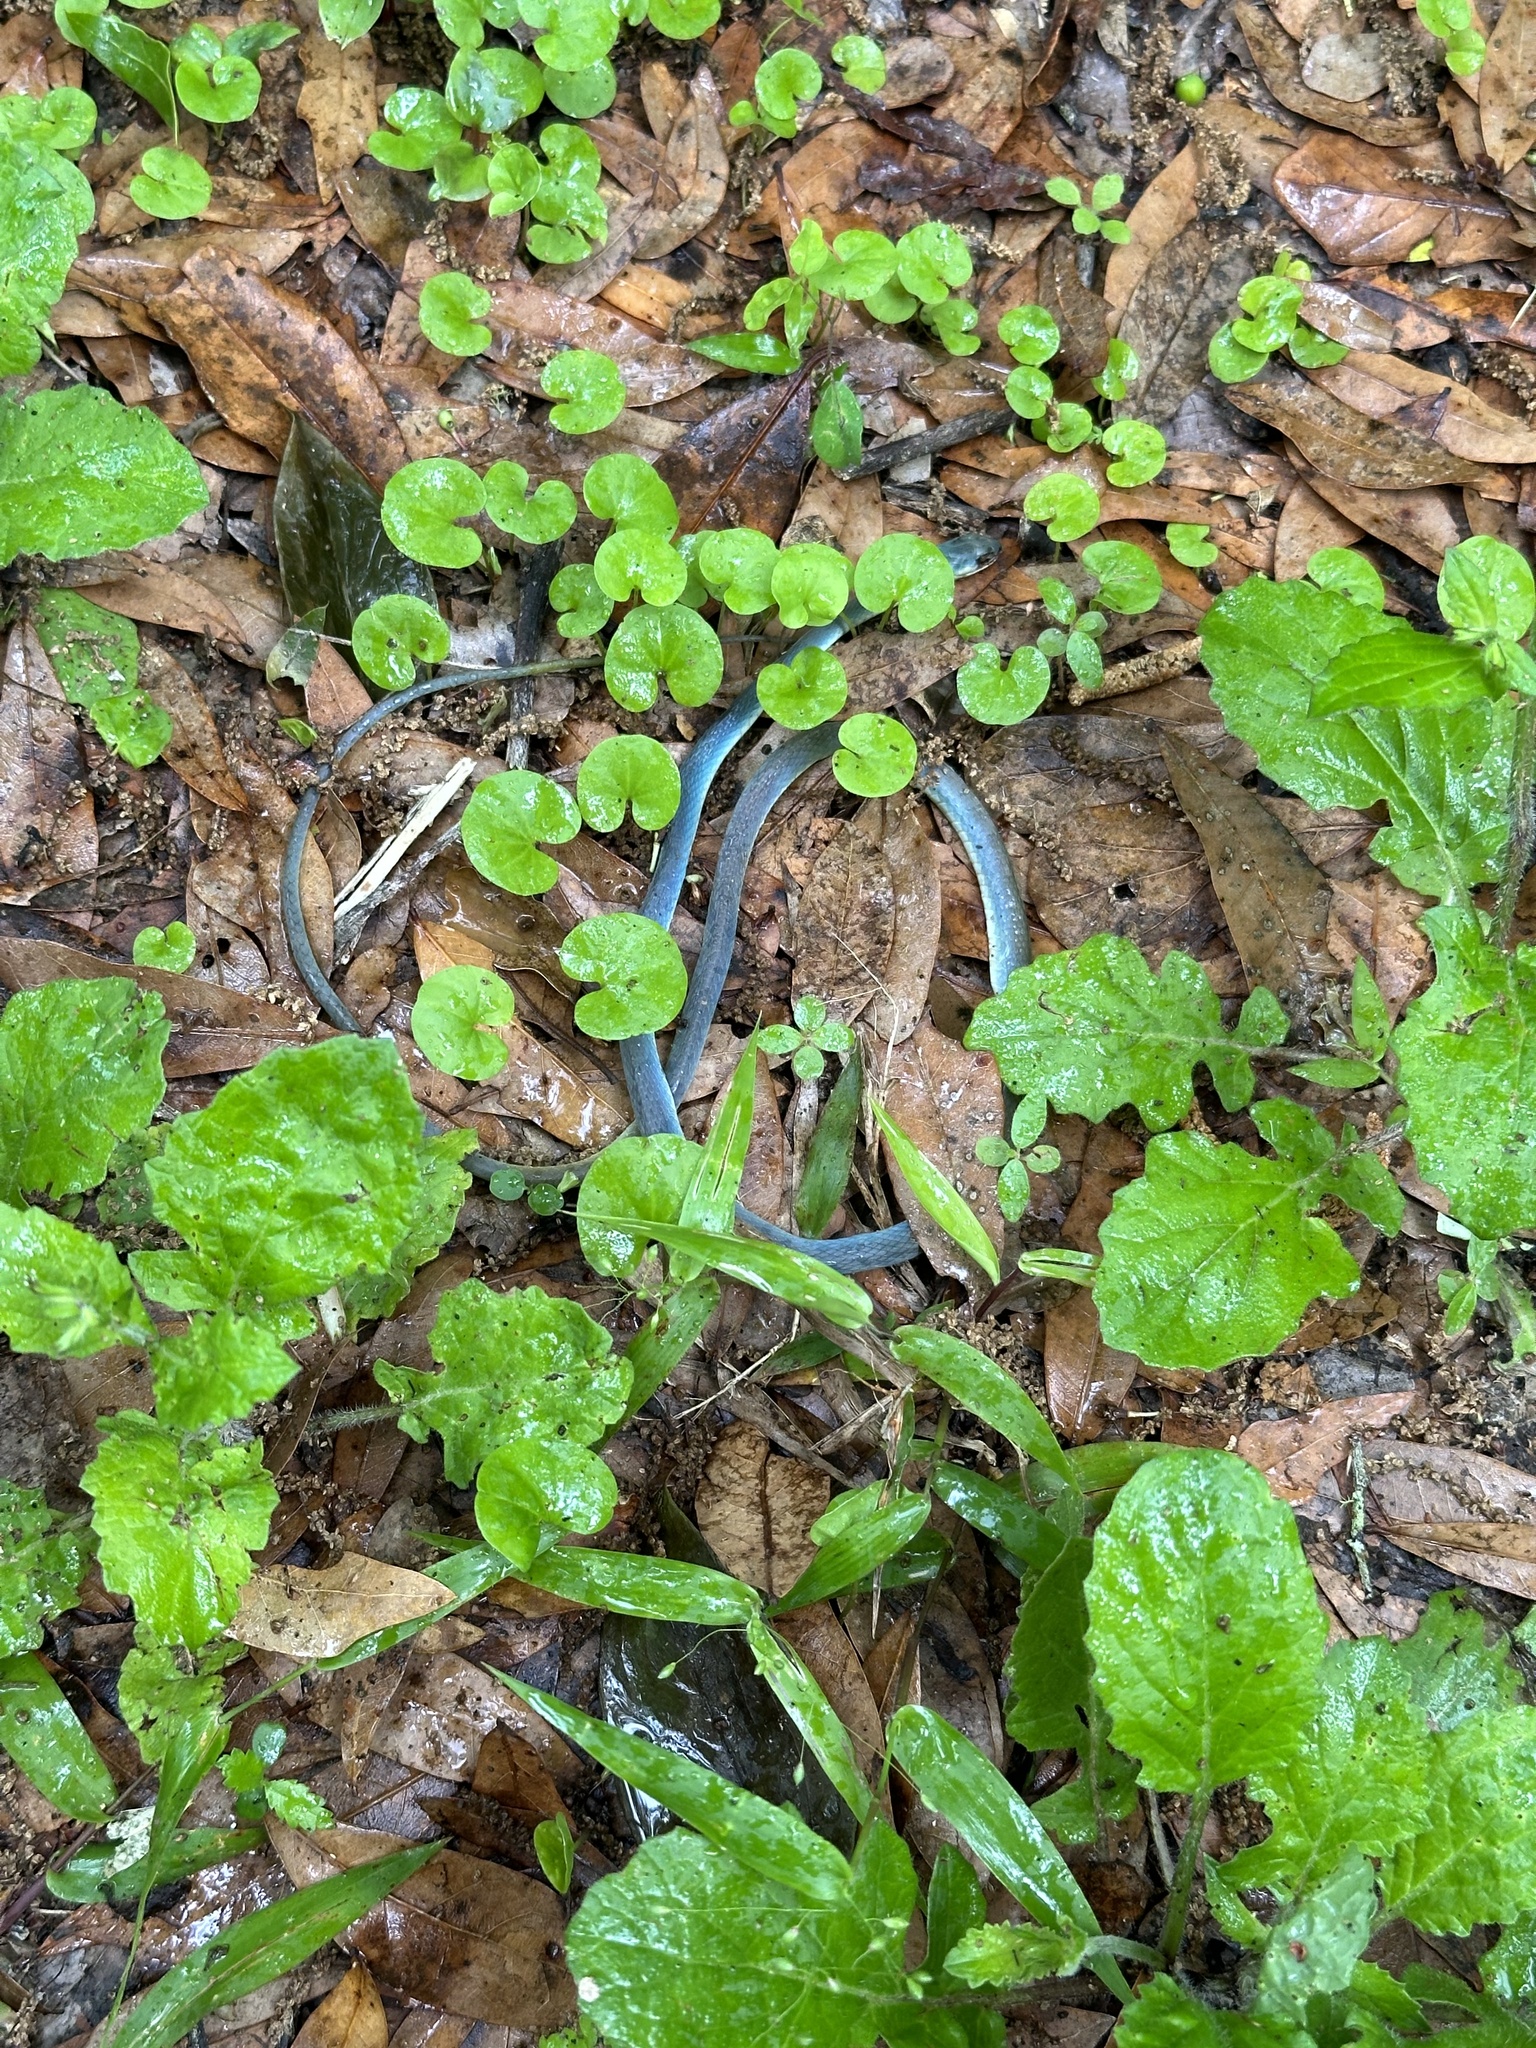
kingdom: Animalia
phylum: Chordata
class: Squamata
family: Colubridae
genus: Opheodrys
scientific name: Opheodrys aestivus
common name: Rough greensnake
